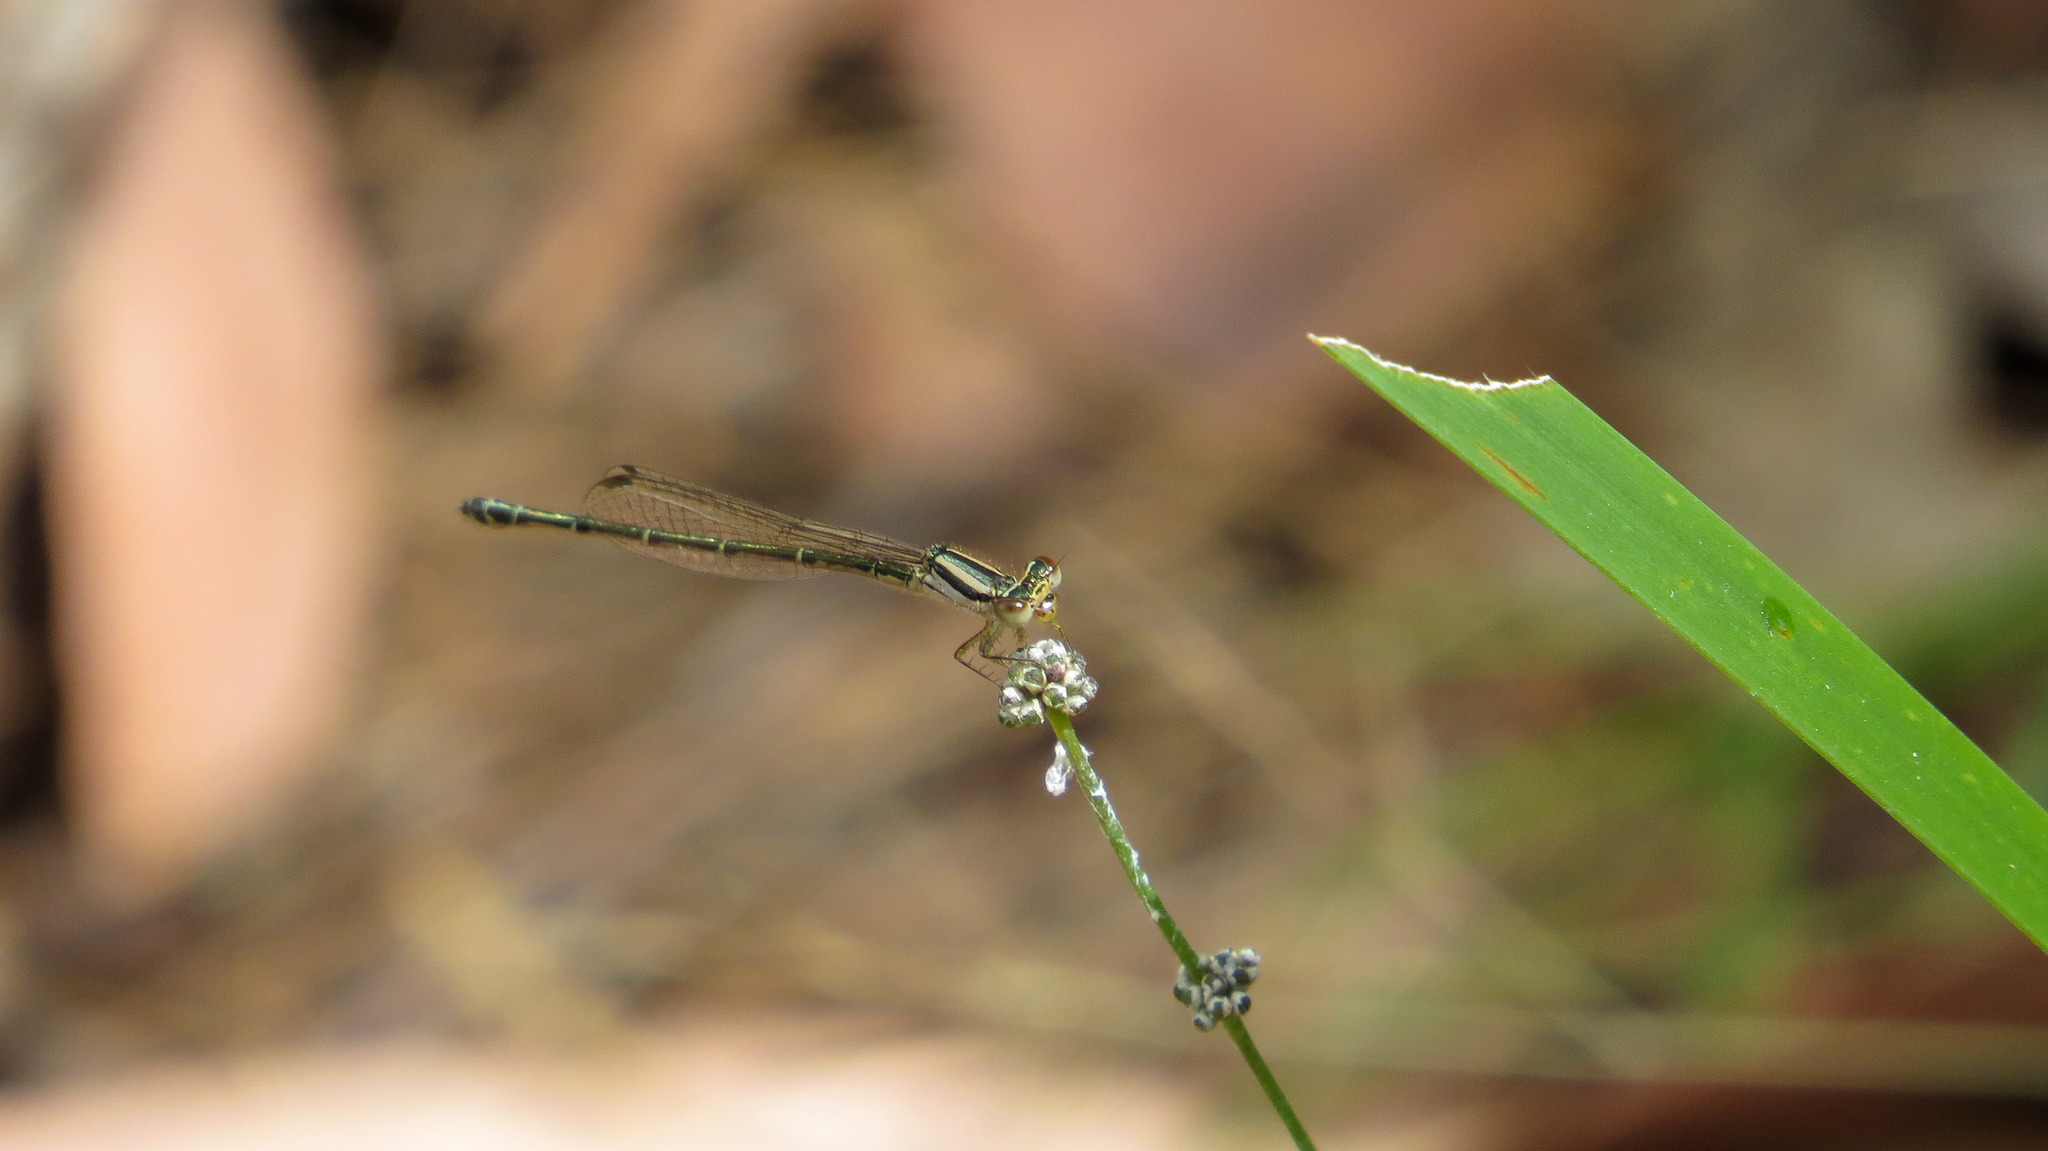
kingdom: Animalia
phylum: Arthropoda
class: Insecta
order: Odonata
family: Coenagrionidae
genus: Austroagrion
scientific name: Austroagrion watsoni
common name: Eastern billabongfly
